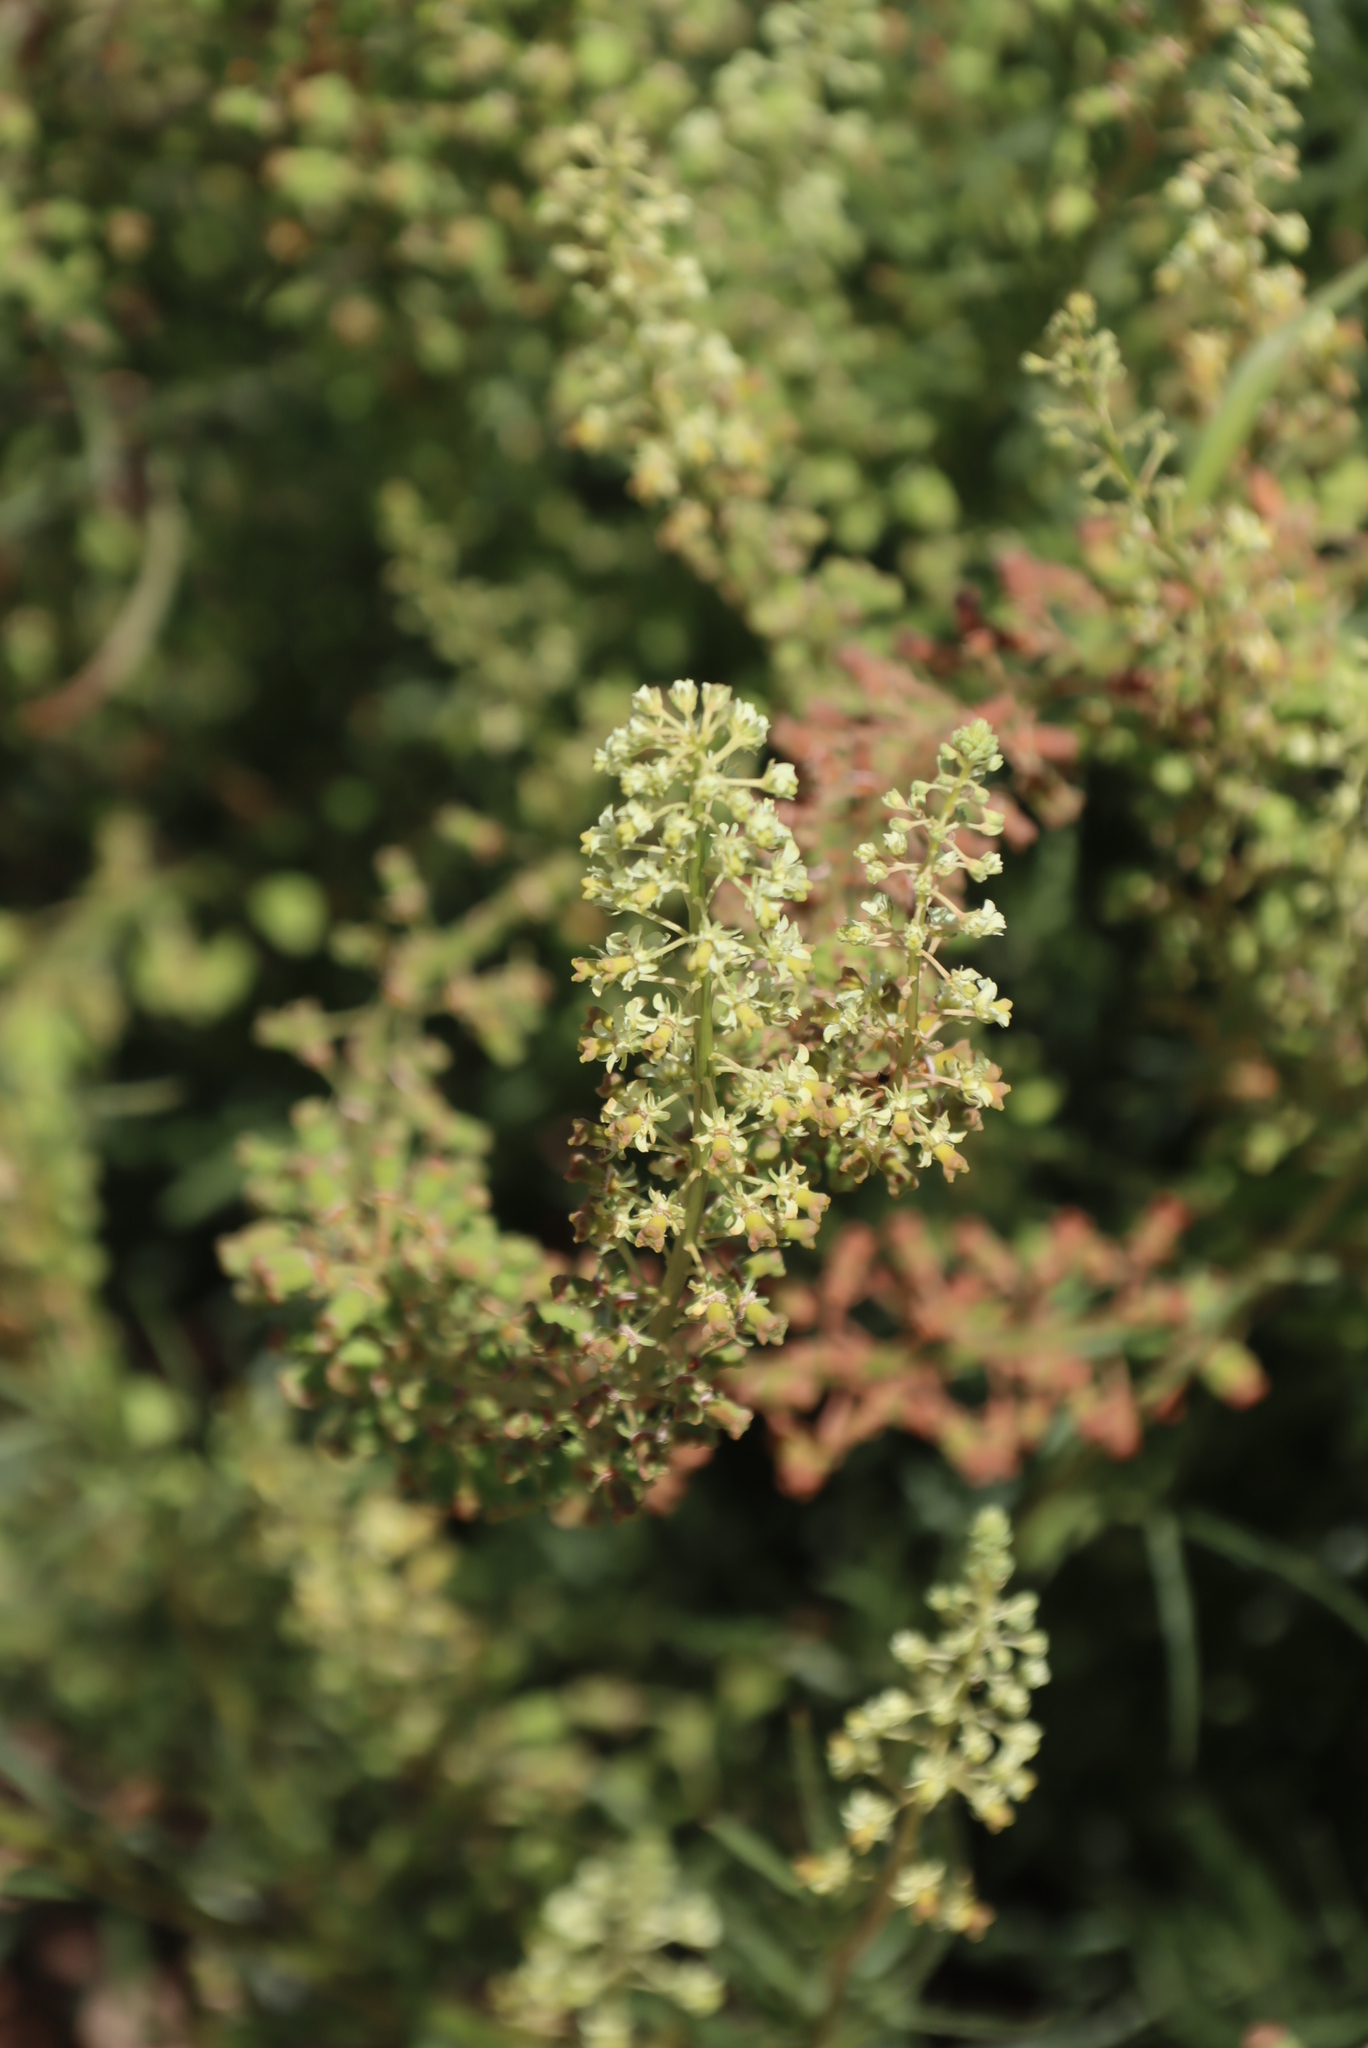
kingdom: Plantae
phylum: Tracheophyta
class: Magnoliopsida
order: Brassicales
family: Resedaceae
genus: Reseda
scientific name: Reseda lutea
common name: Wild mignonette
